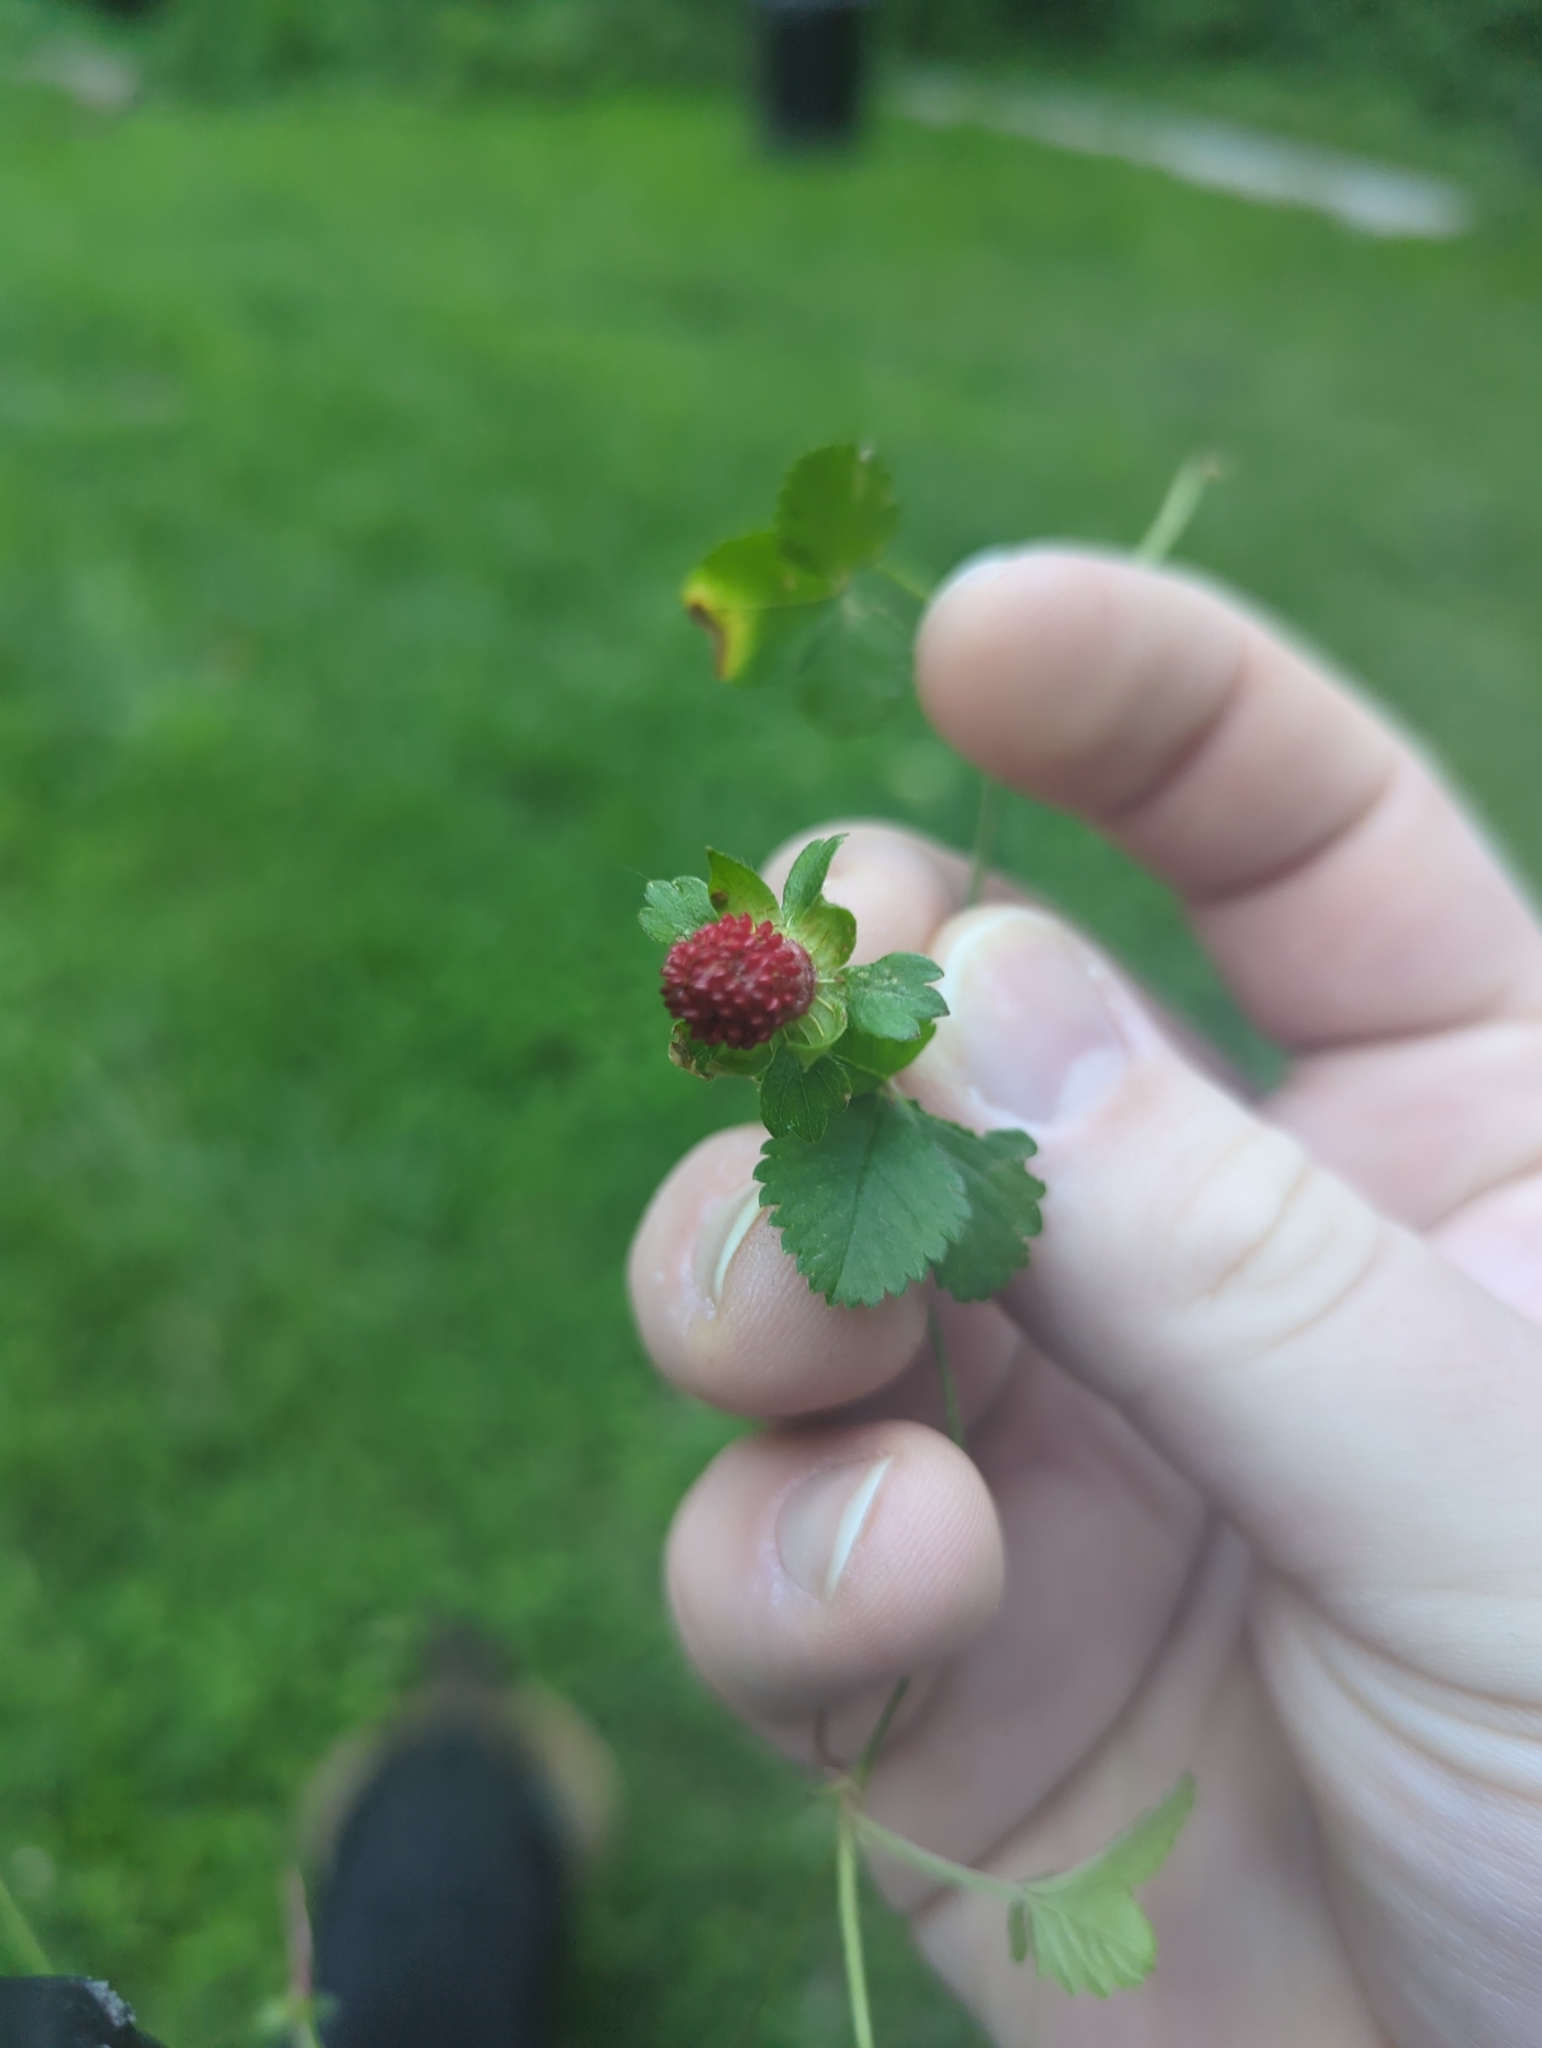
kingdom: Plantae
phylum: Tracheophyta
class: Magnoliopsida
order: Rosales
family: Rosaceae
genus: Potentilla
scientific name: Potentilla indica
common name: Yellow-flowered strawberry
